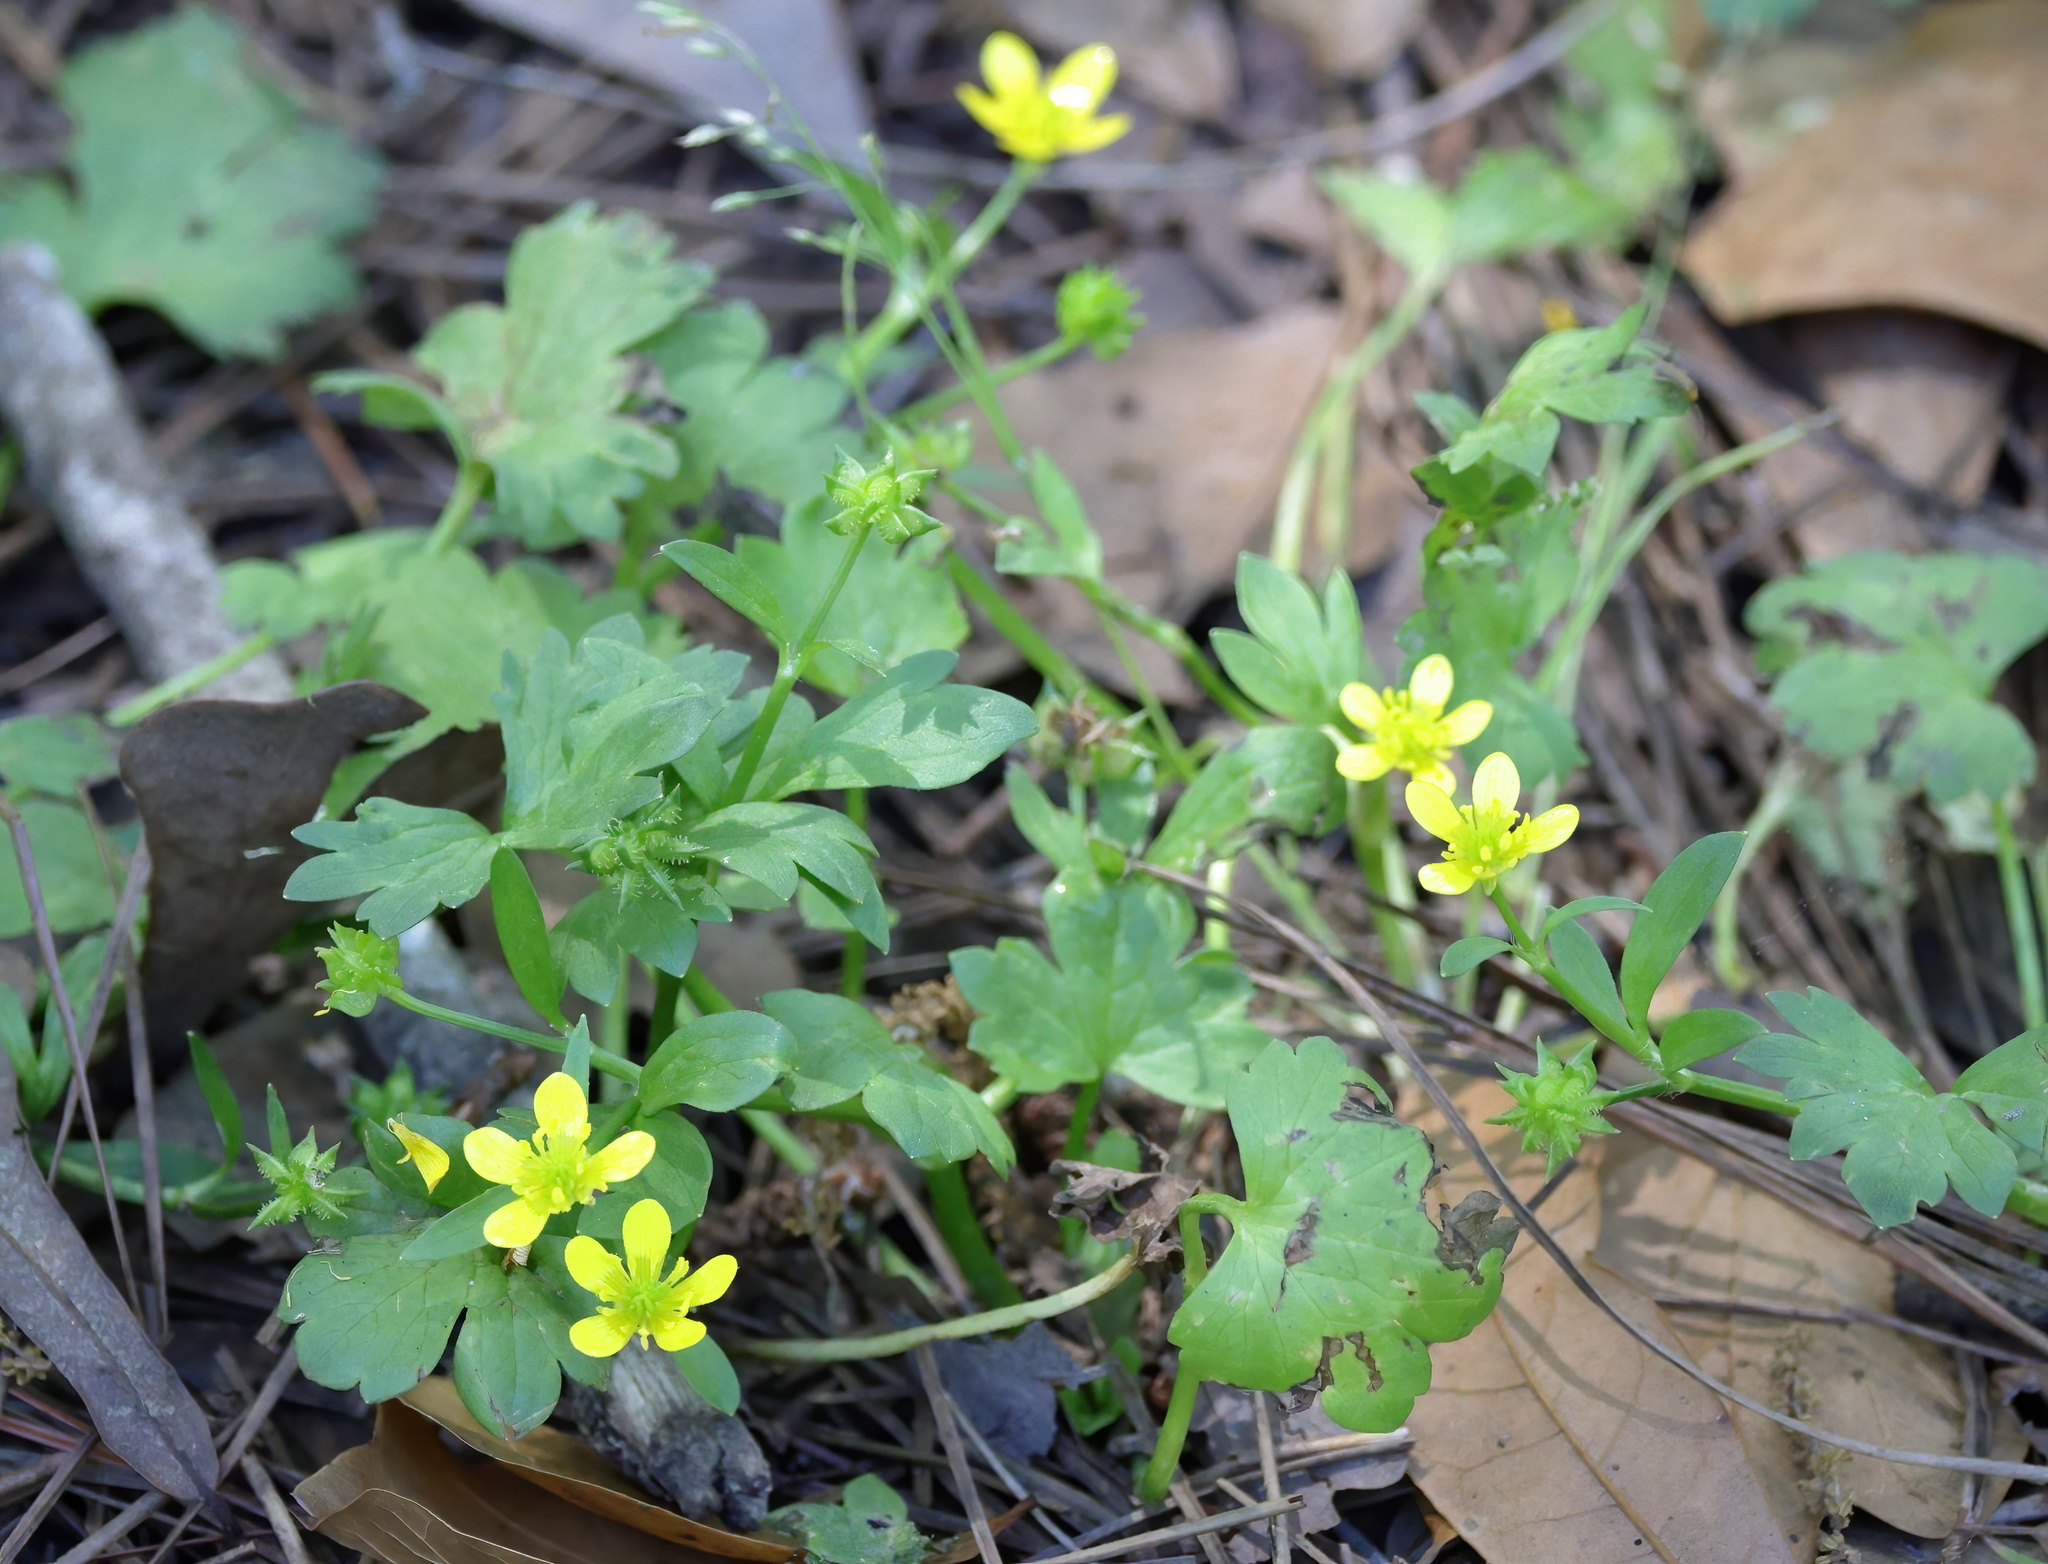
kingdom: Plantae
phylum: Tracheophyta
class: Magnoliopsida
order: Ranunculales
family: Ranunculaceae
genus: Ranunculus
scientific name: Ranunculus muricatus
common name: Rough-fruited buttercup
